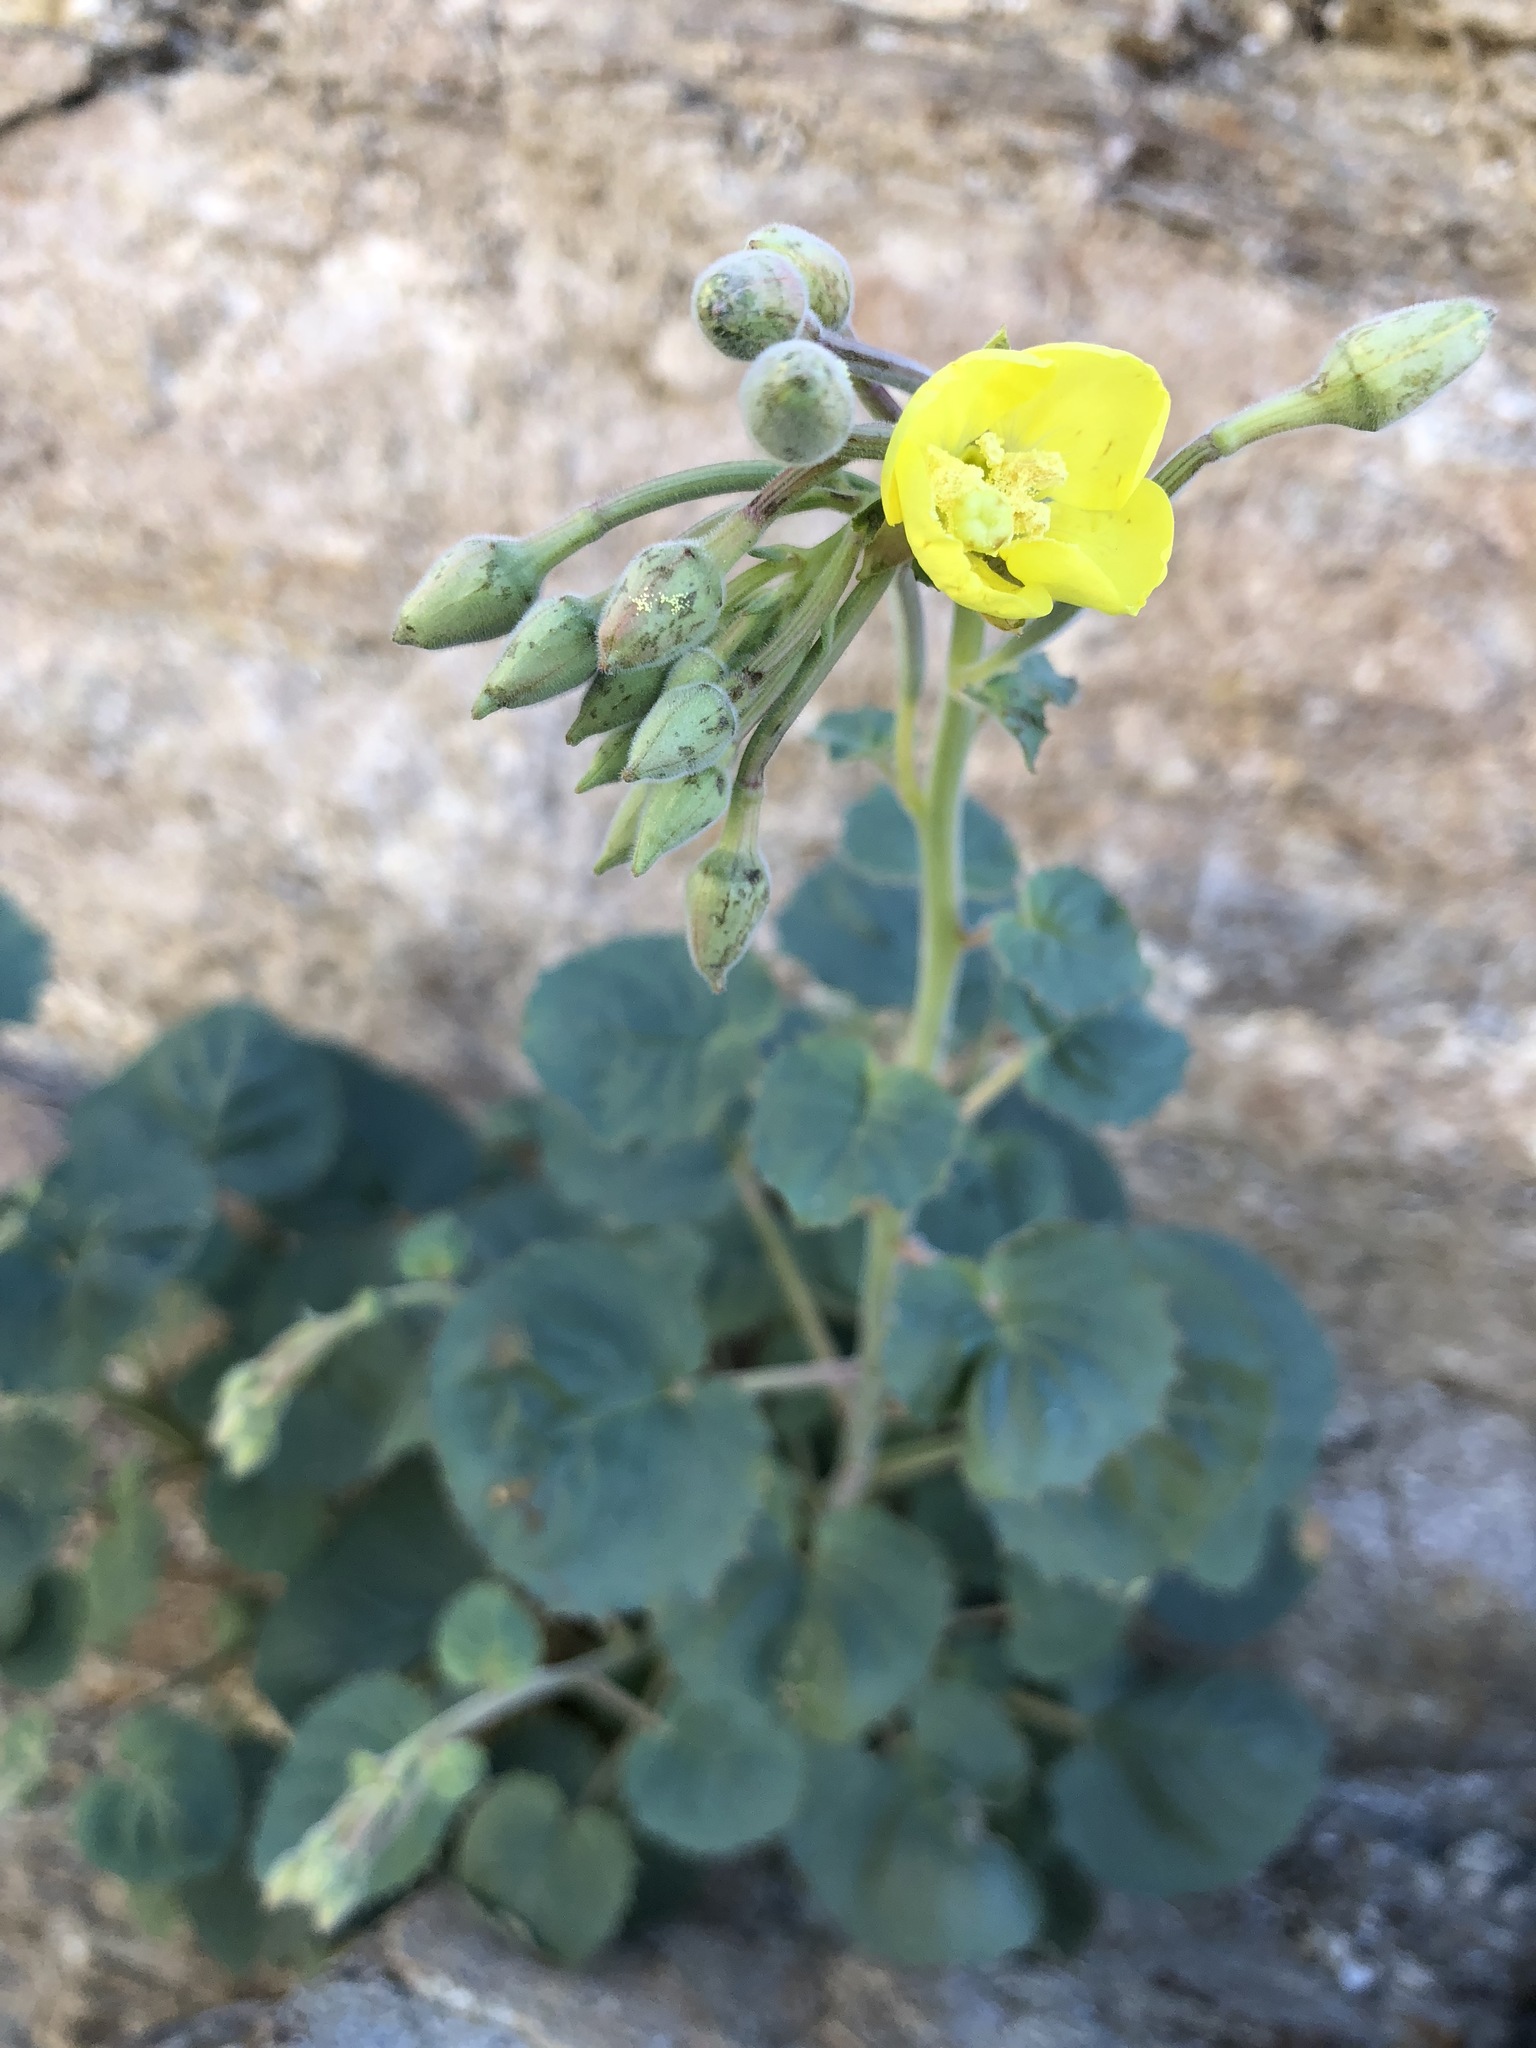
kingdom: Plantae
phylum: Tracheophyta
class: Magnoliopsida
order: Myrtales
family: Onagraceae
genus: Chylismia
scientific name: Chylismia cardiophylla
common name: Heartleaf suncup
